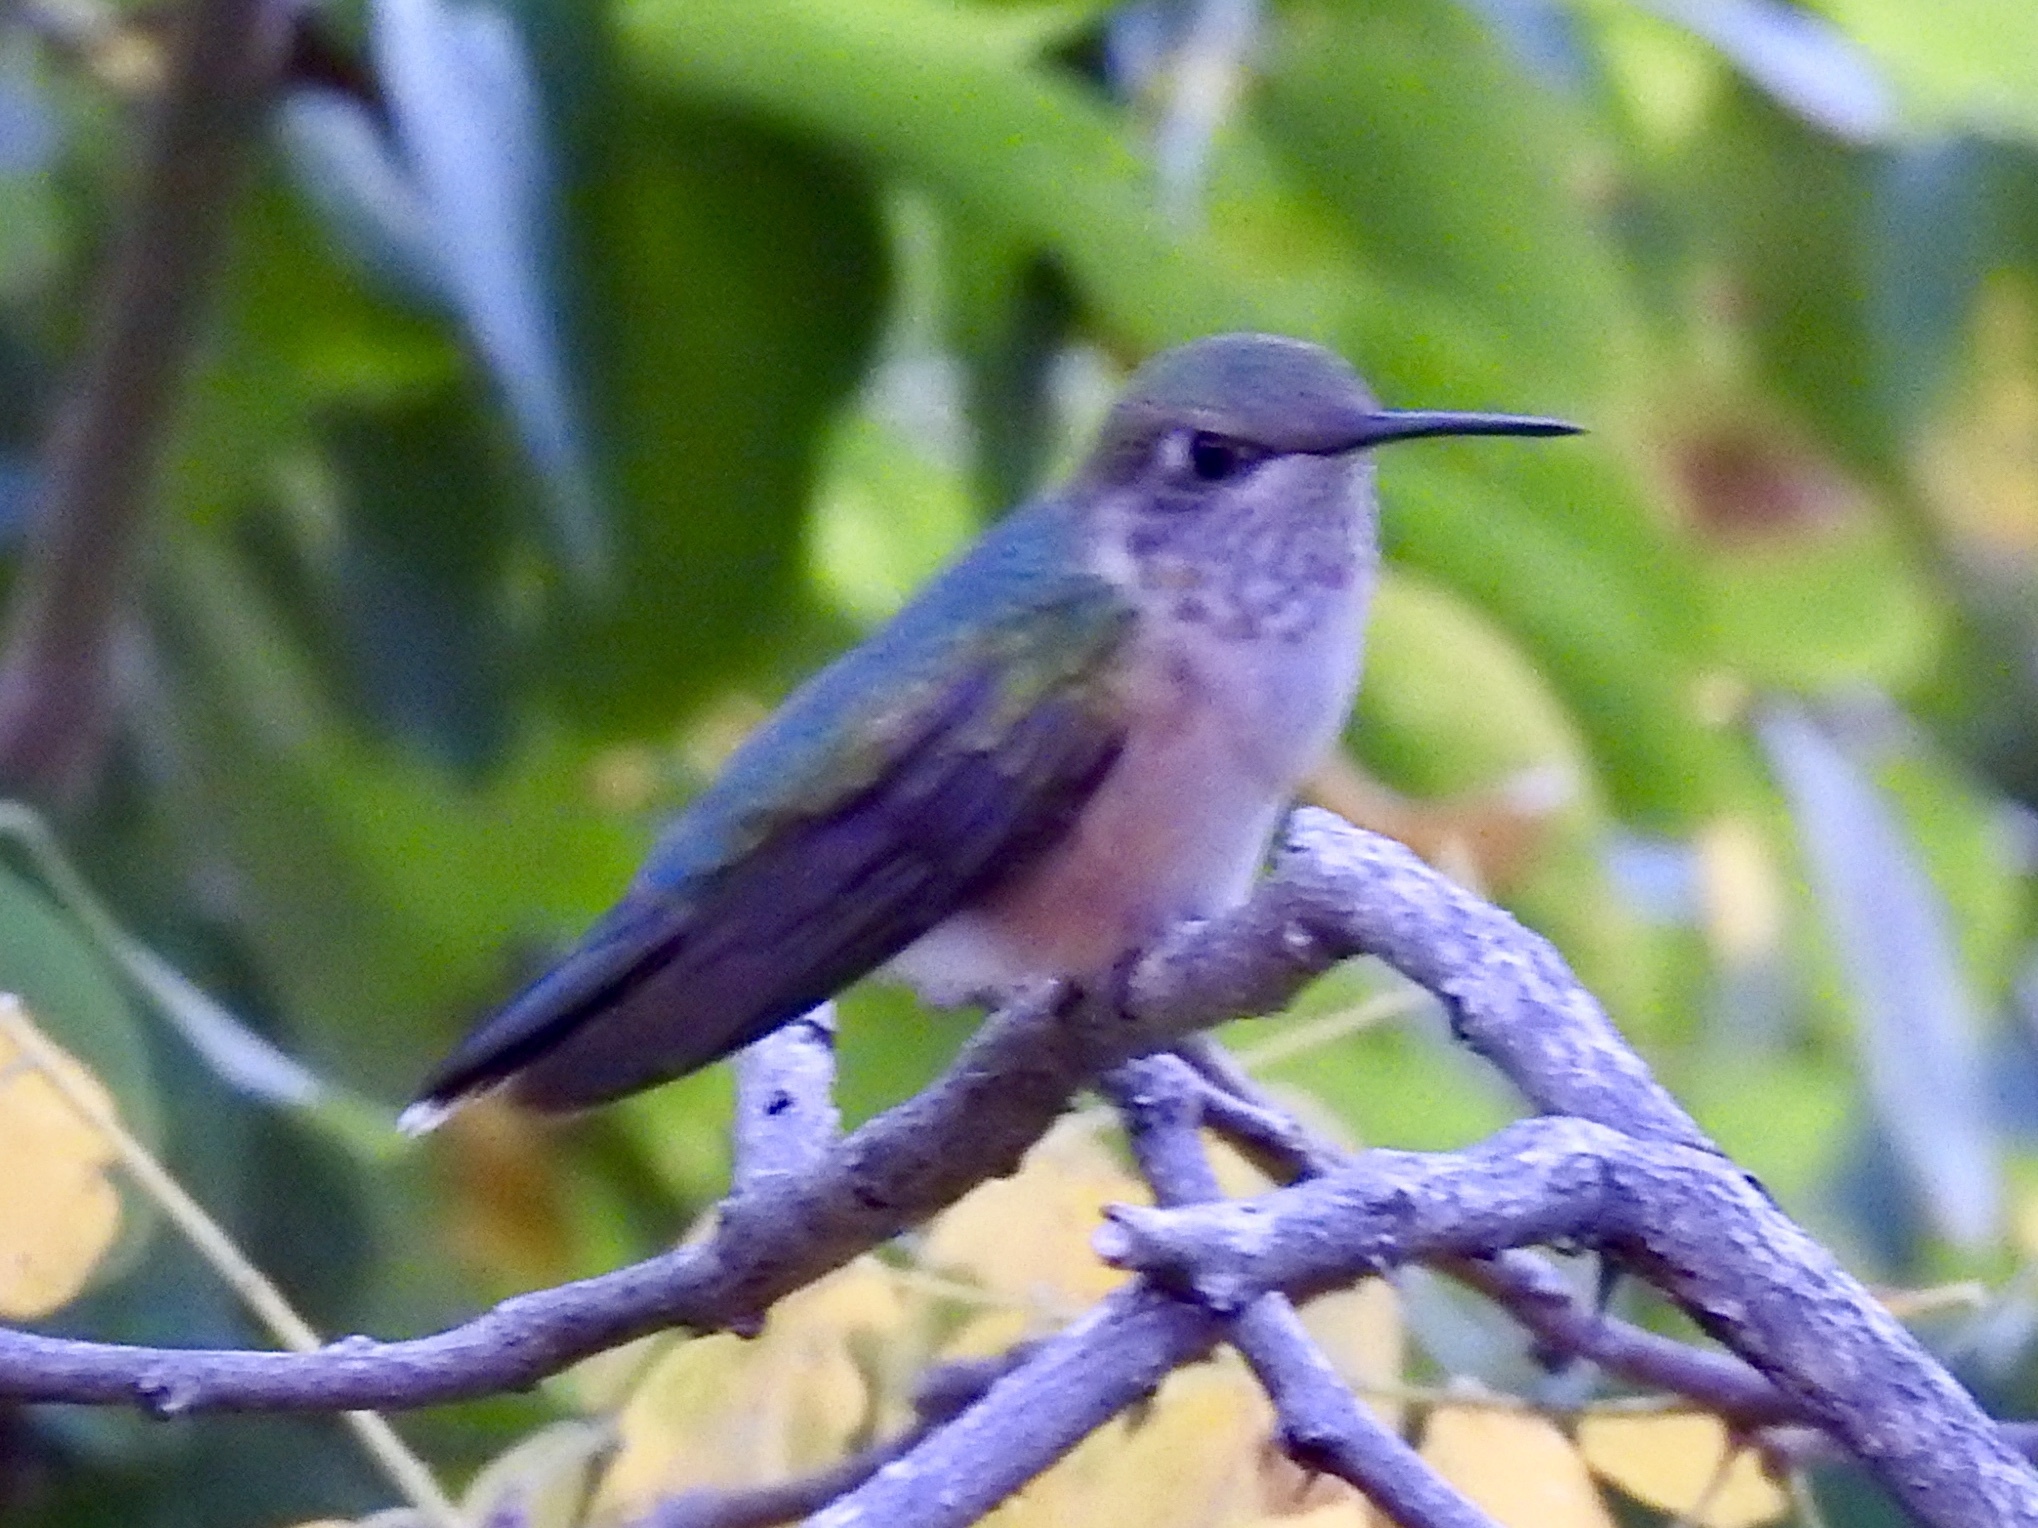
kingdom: Animalia
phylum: Chordata
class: Aves
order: Apodiformes
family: Trochilidae
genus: Selasphorus
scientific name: Selasphorus platycercus
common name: Broad-tailed hummingbird
